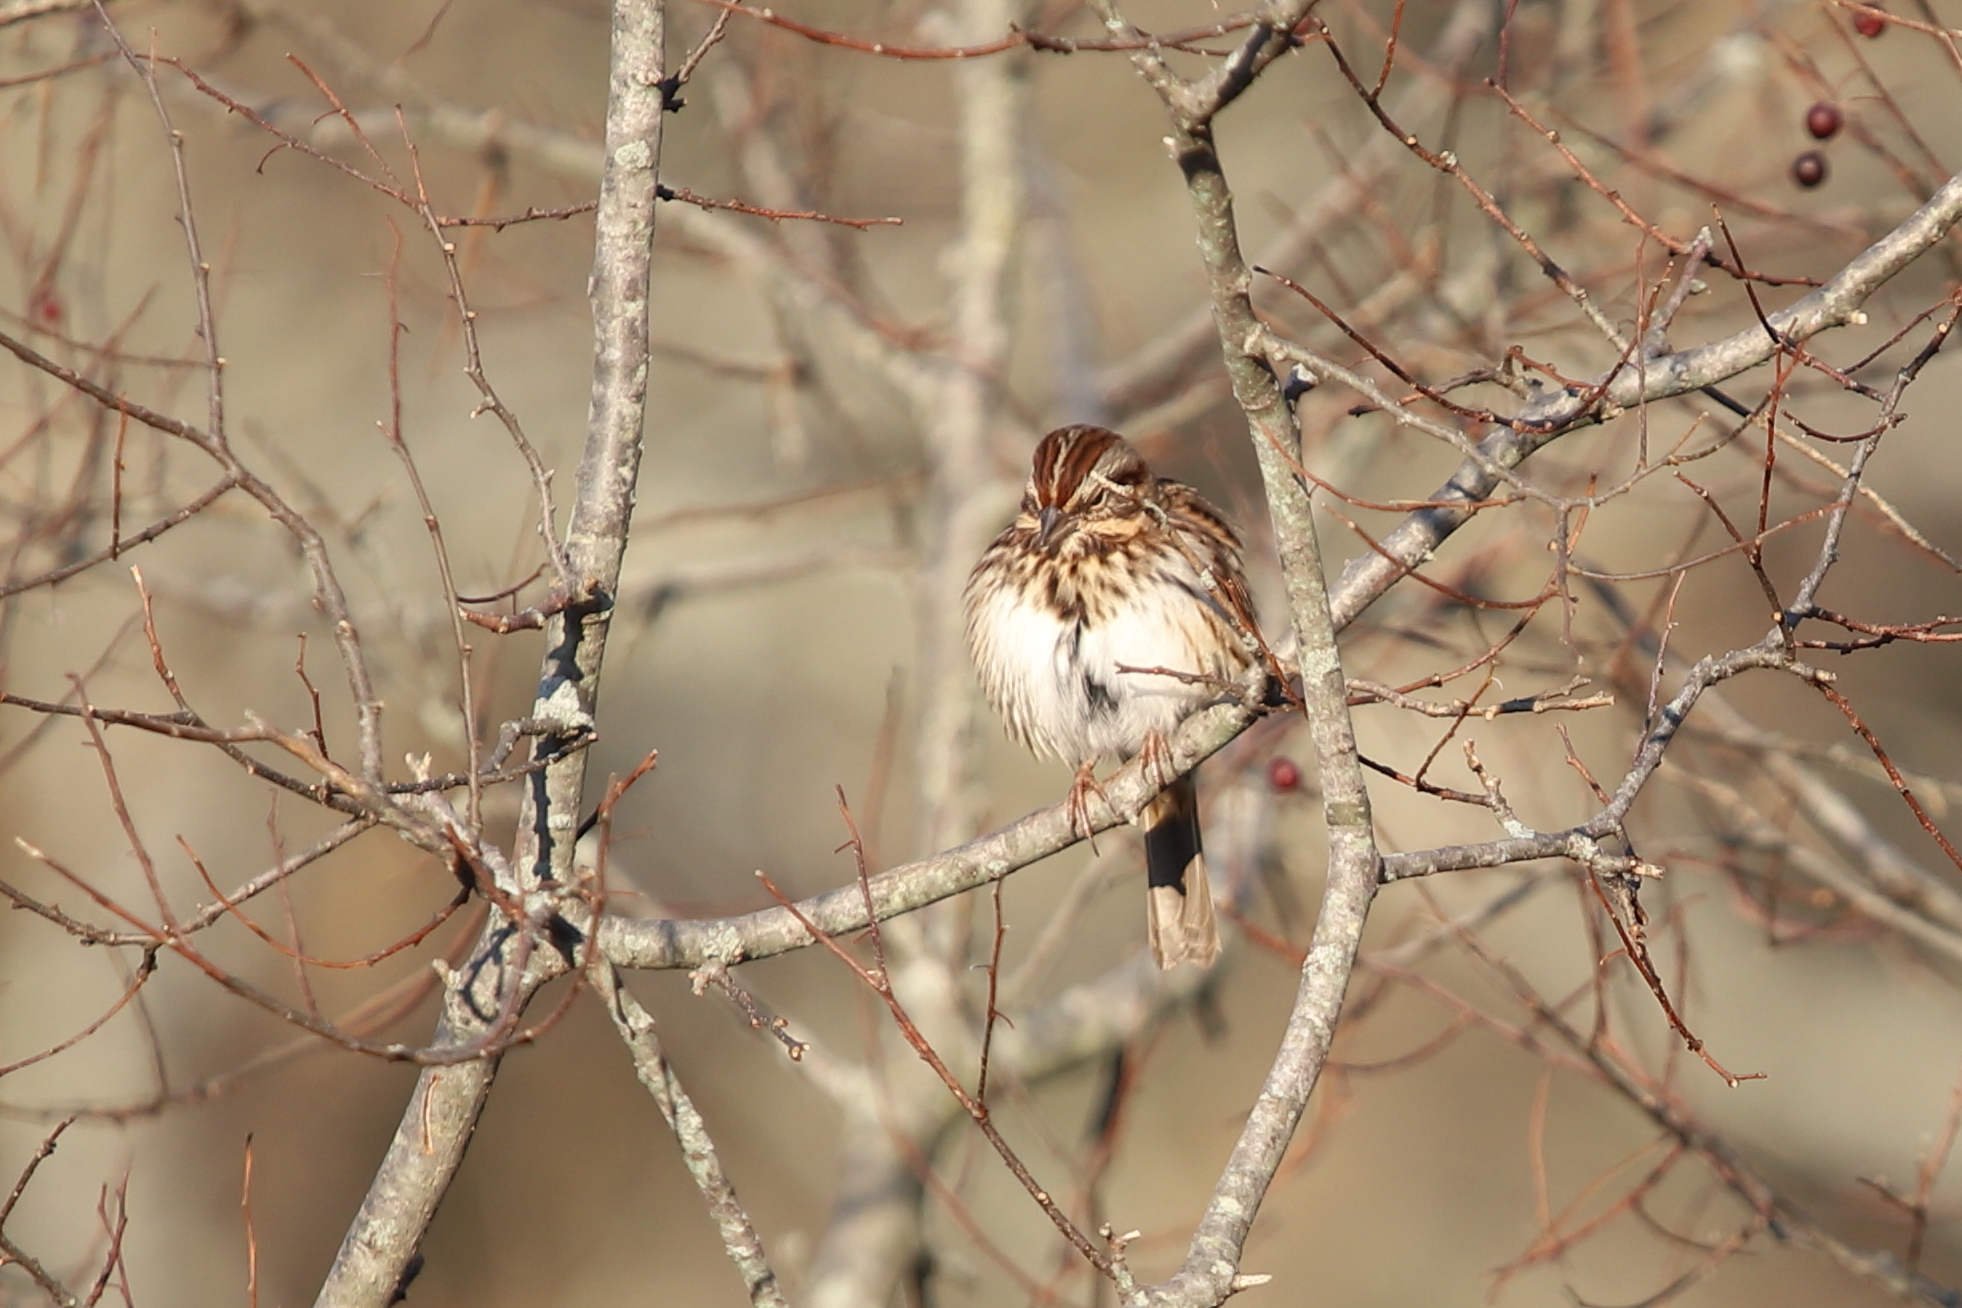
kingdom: Animalia
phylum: Chordata
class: Aves
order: Passeriformes
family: Passerellidae
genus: Melospiza
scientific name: Melospiza melodia
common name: Song sparrow
